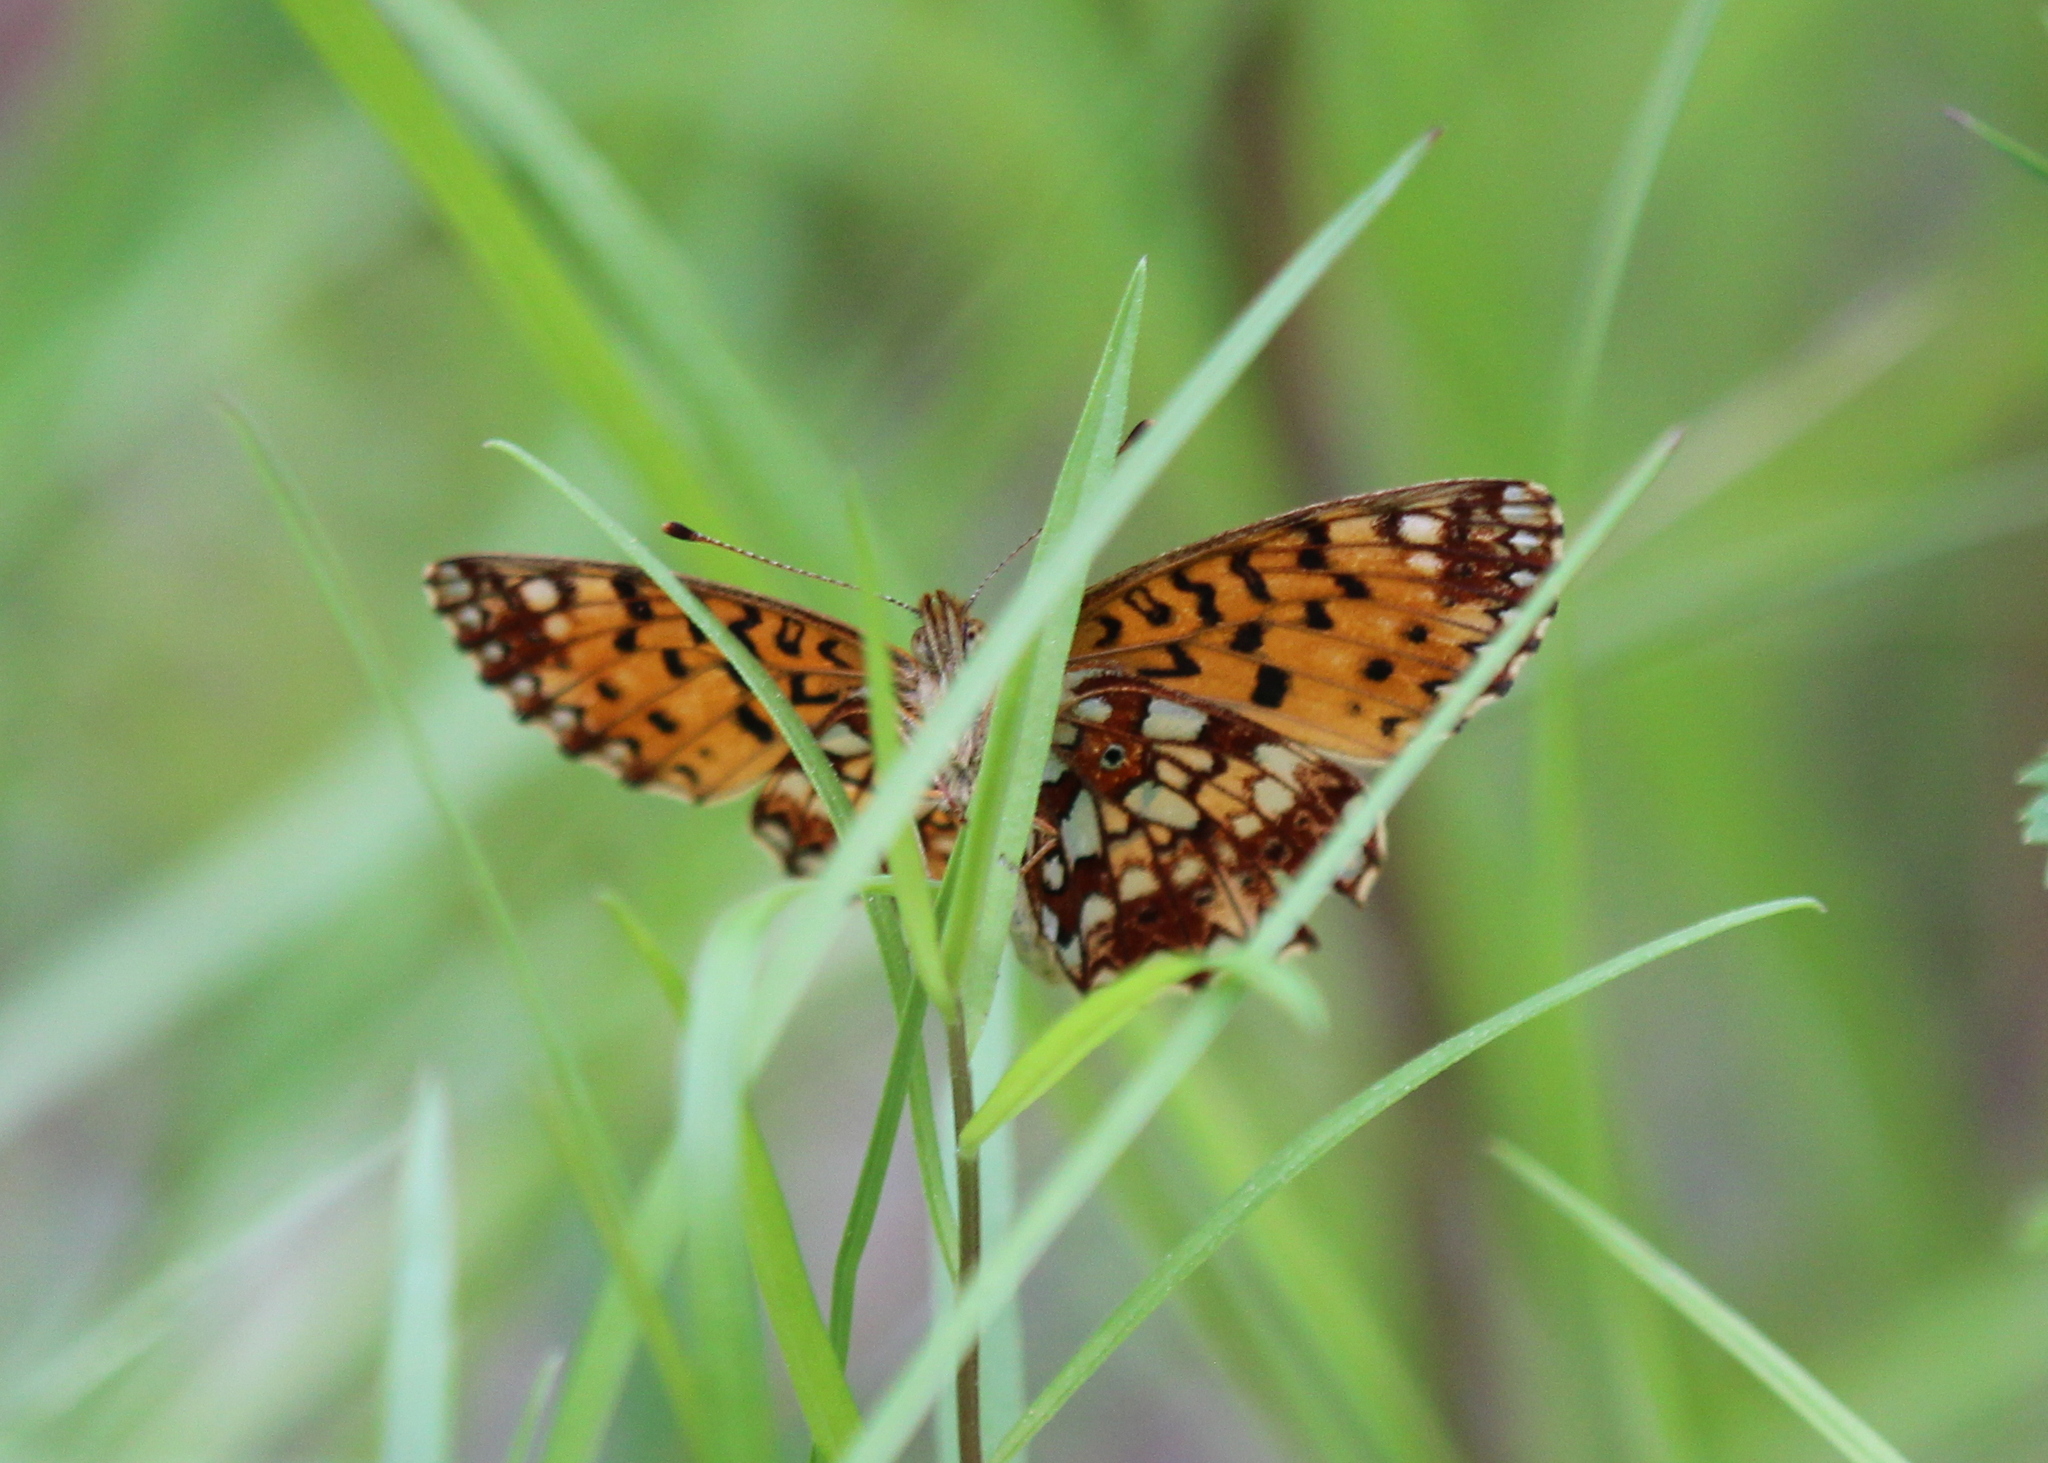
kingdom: Animalia
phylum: Arthropoda
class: Insecta
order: Lepidoptera
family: Nymphalidae
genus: Boloria
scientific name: Boloria
